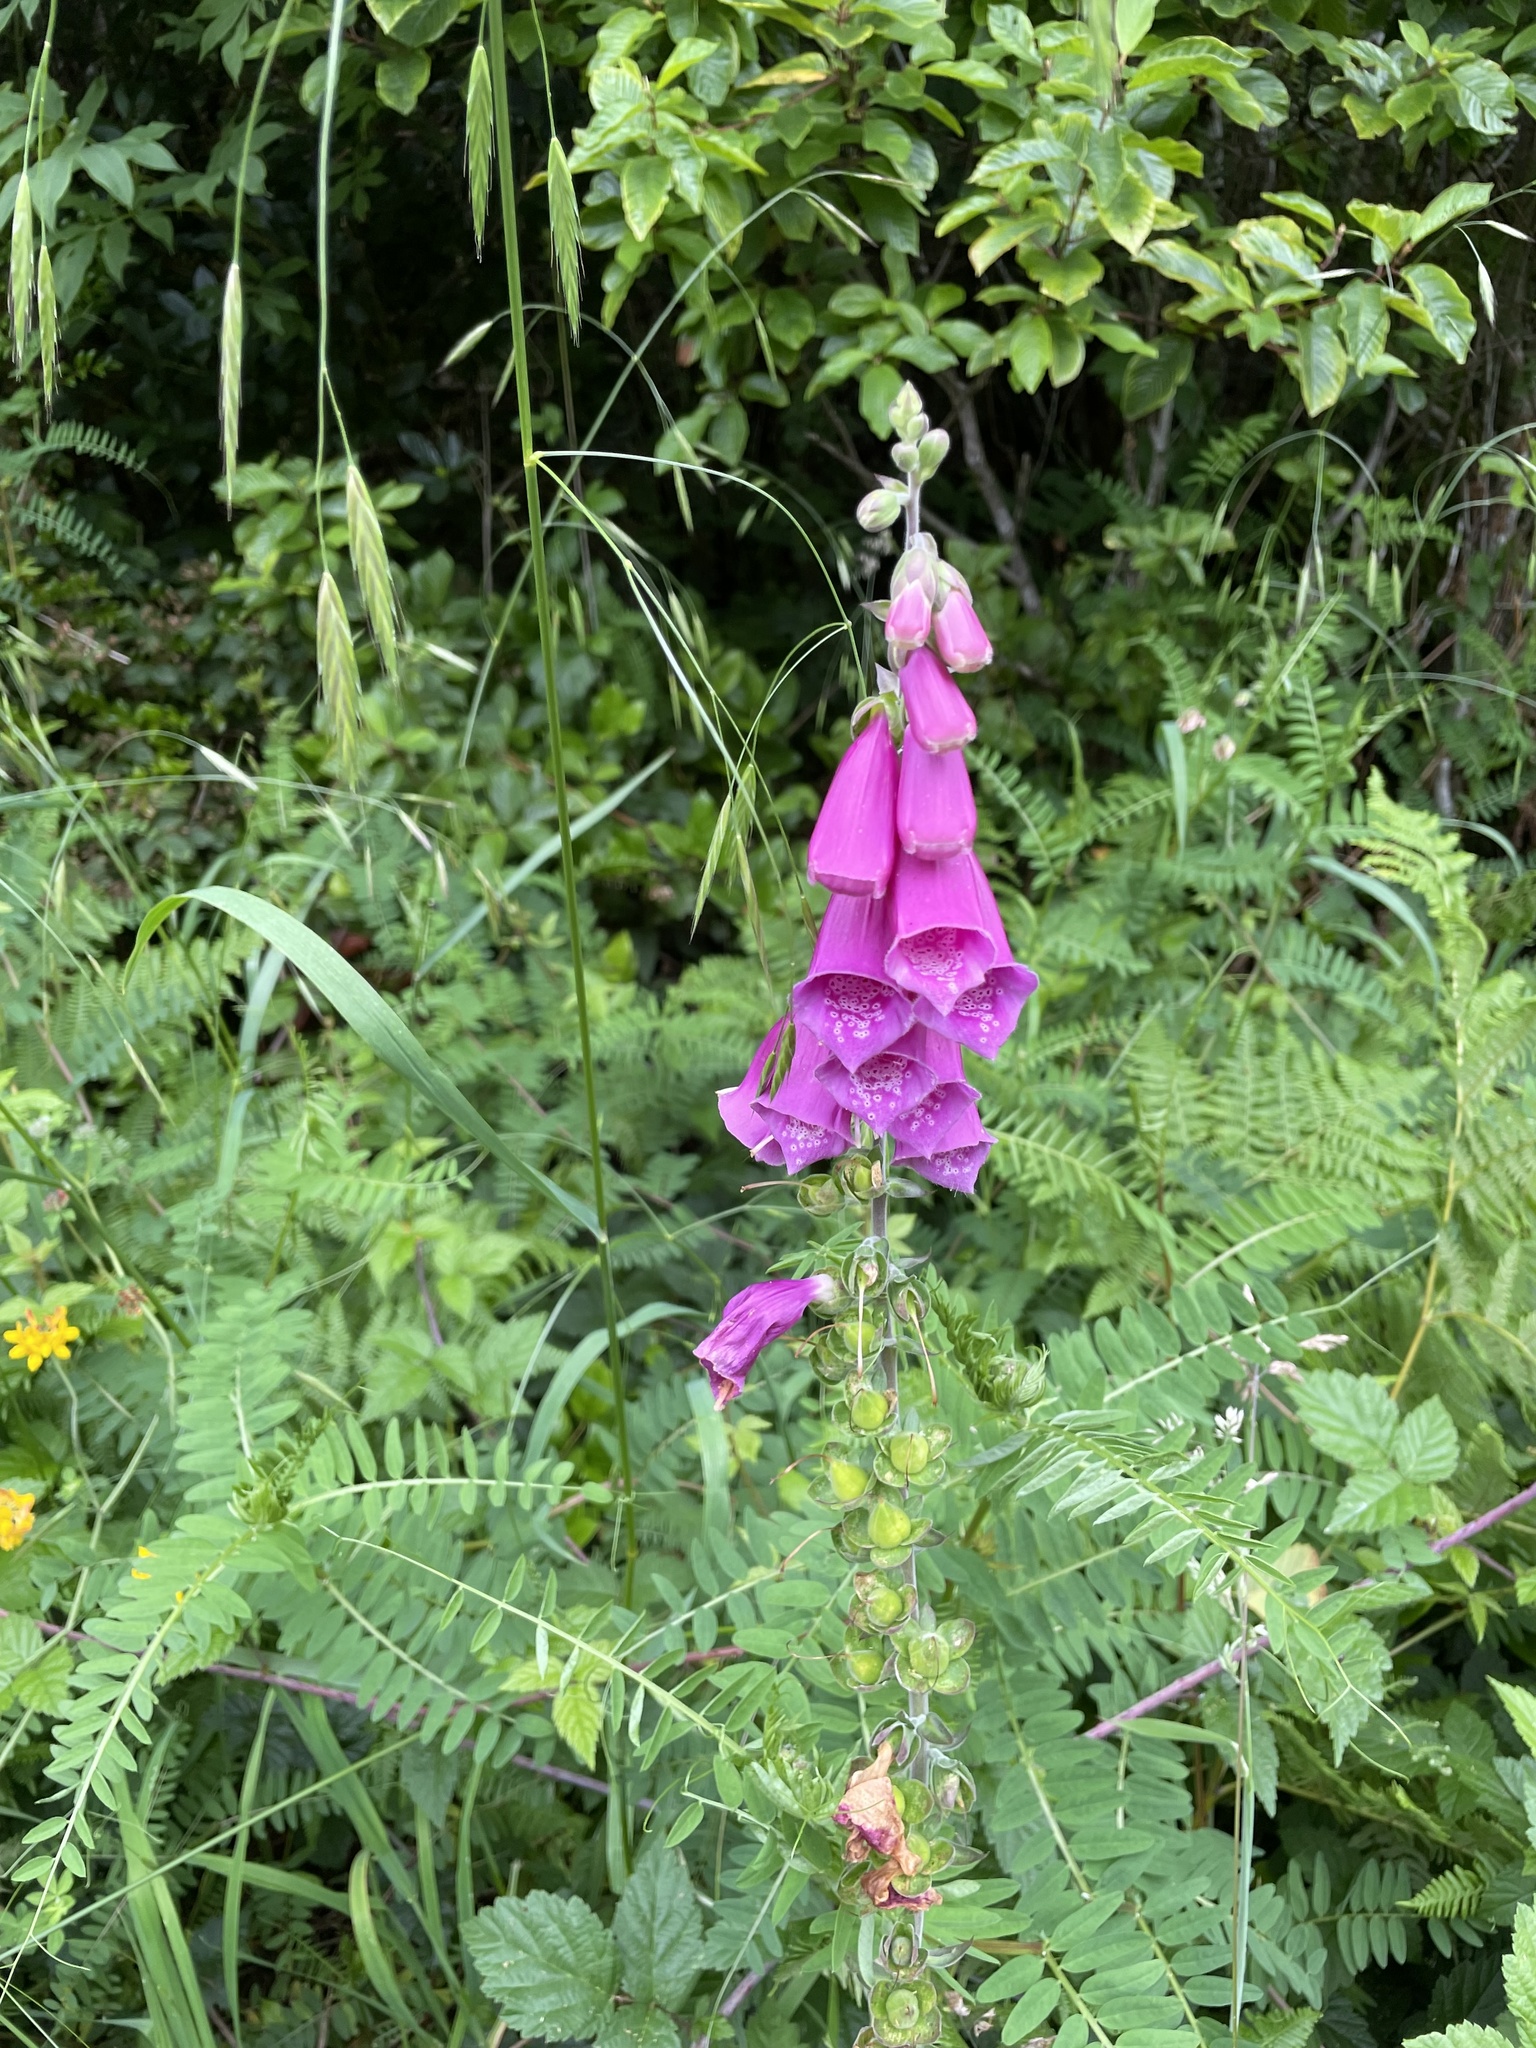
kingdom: Plantae
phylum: Tracheophyta
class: Magnoliopsida
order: Lamiales
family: Plantaginaceae
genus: Digitalis
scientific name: Digitalis purpurea
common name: Foxglove
